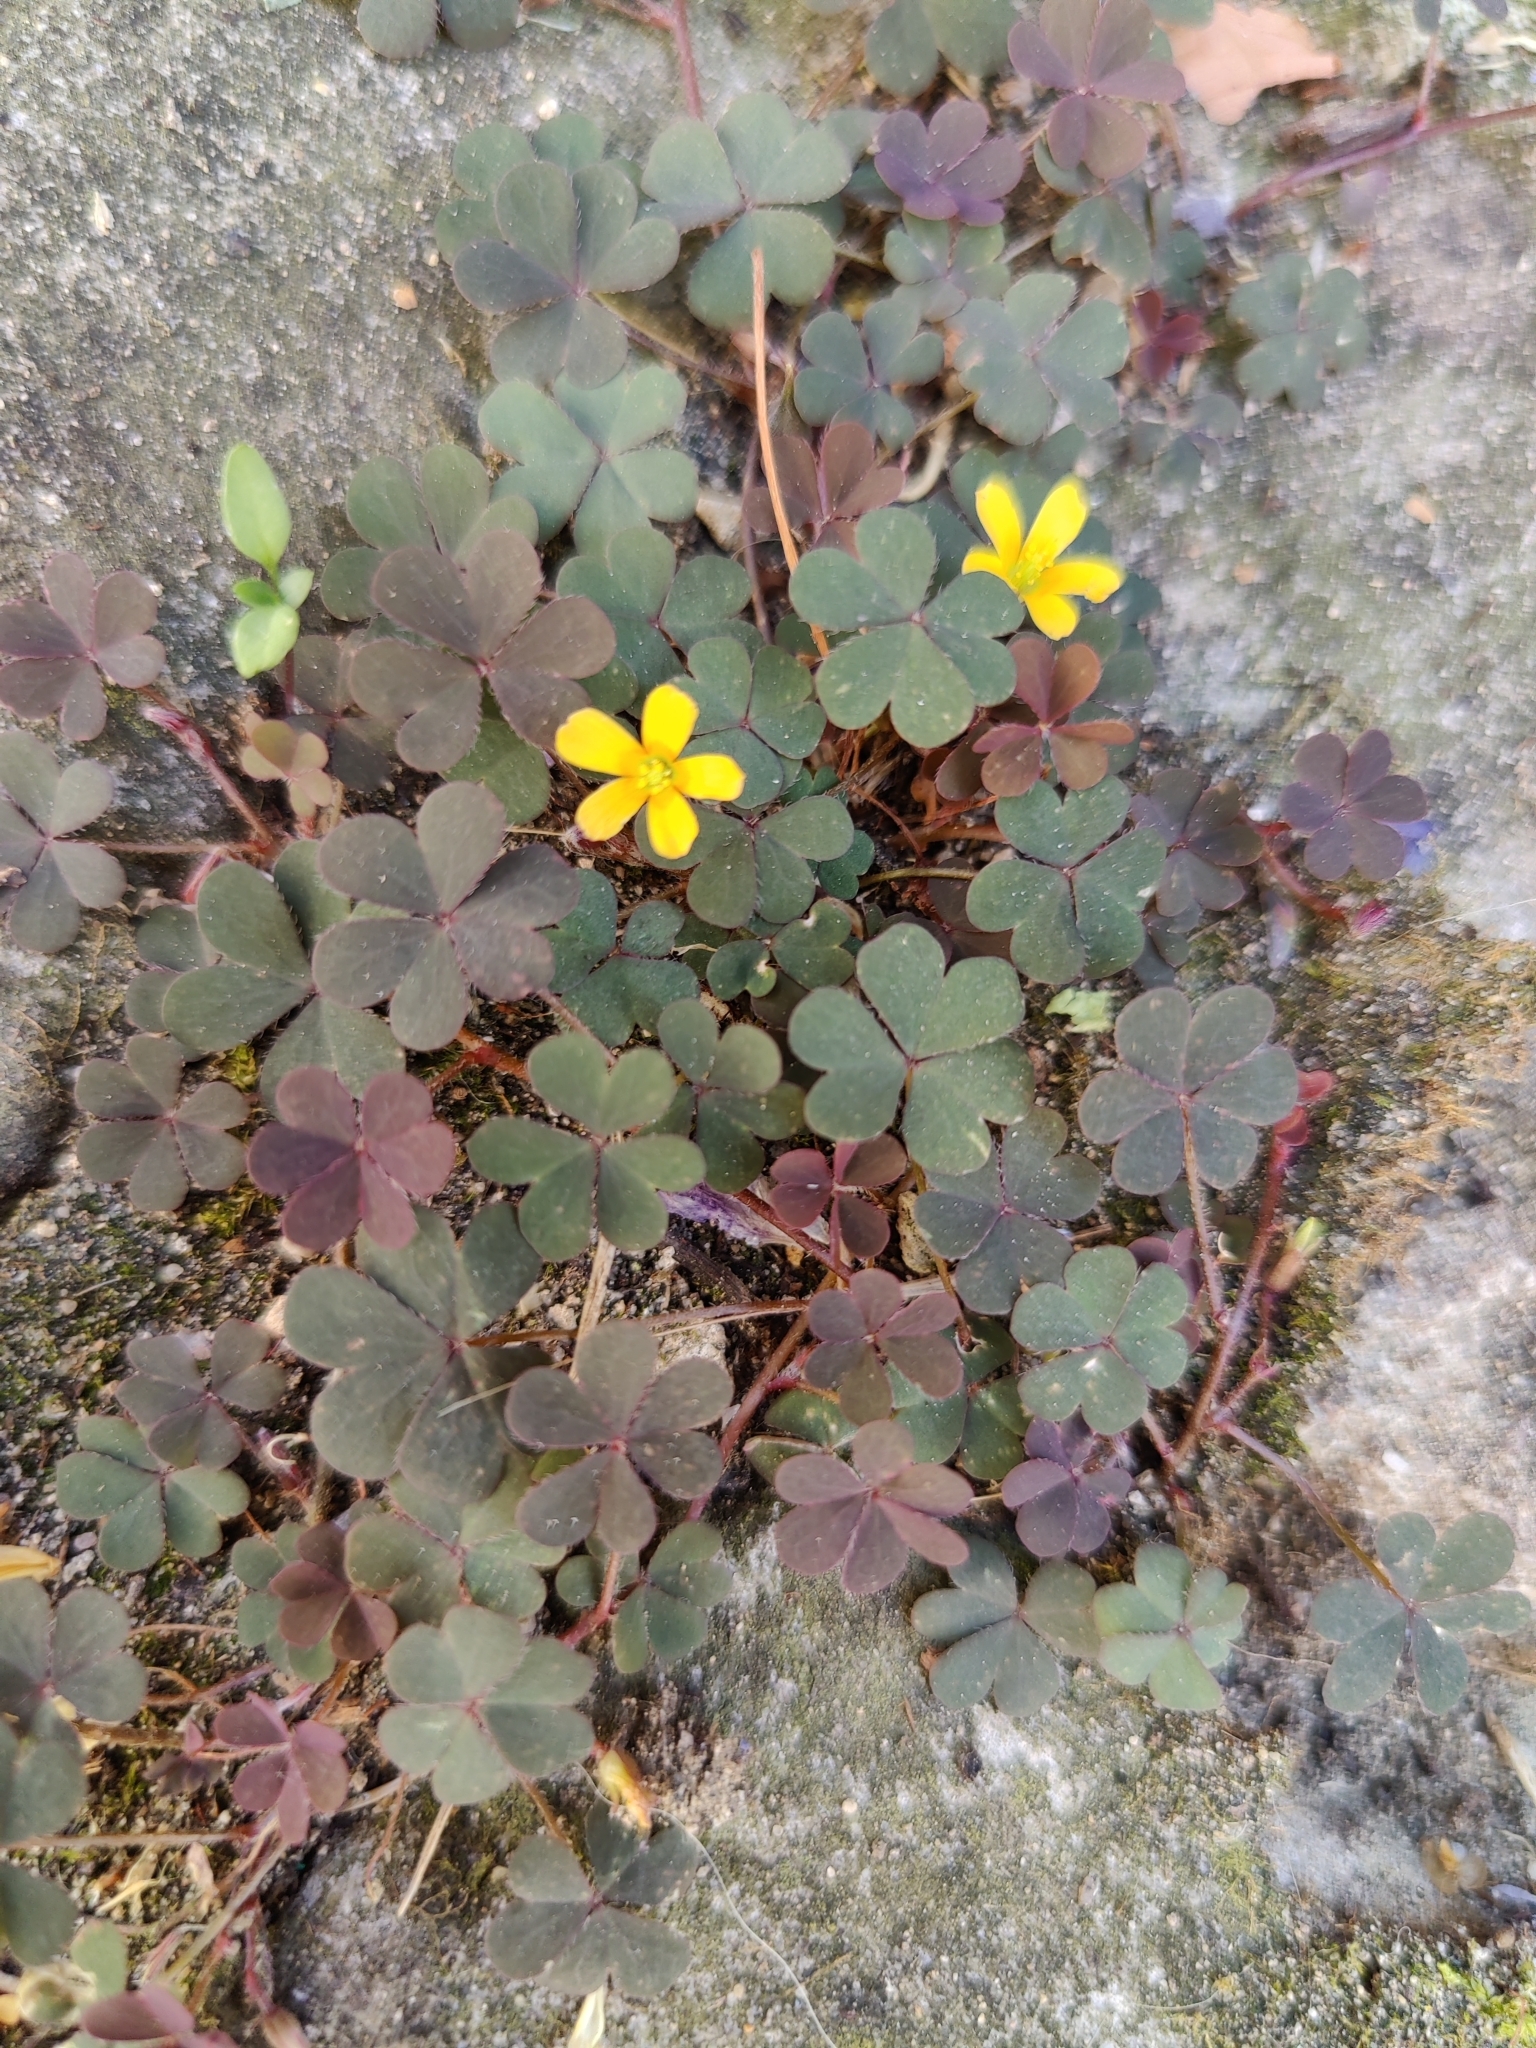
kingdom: Plantae
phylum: Tracheophyta
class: Magnoliopsida
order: Oxalidales
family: Oxalidaceae
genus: Oxalis
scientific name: Oxalis corniculata
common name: Procumbent yellow-sorrel
